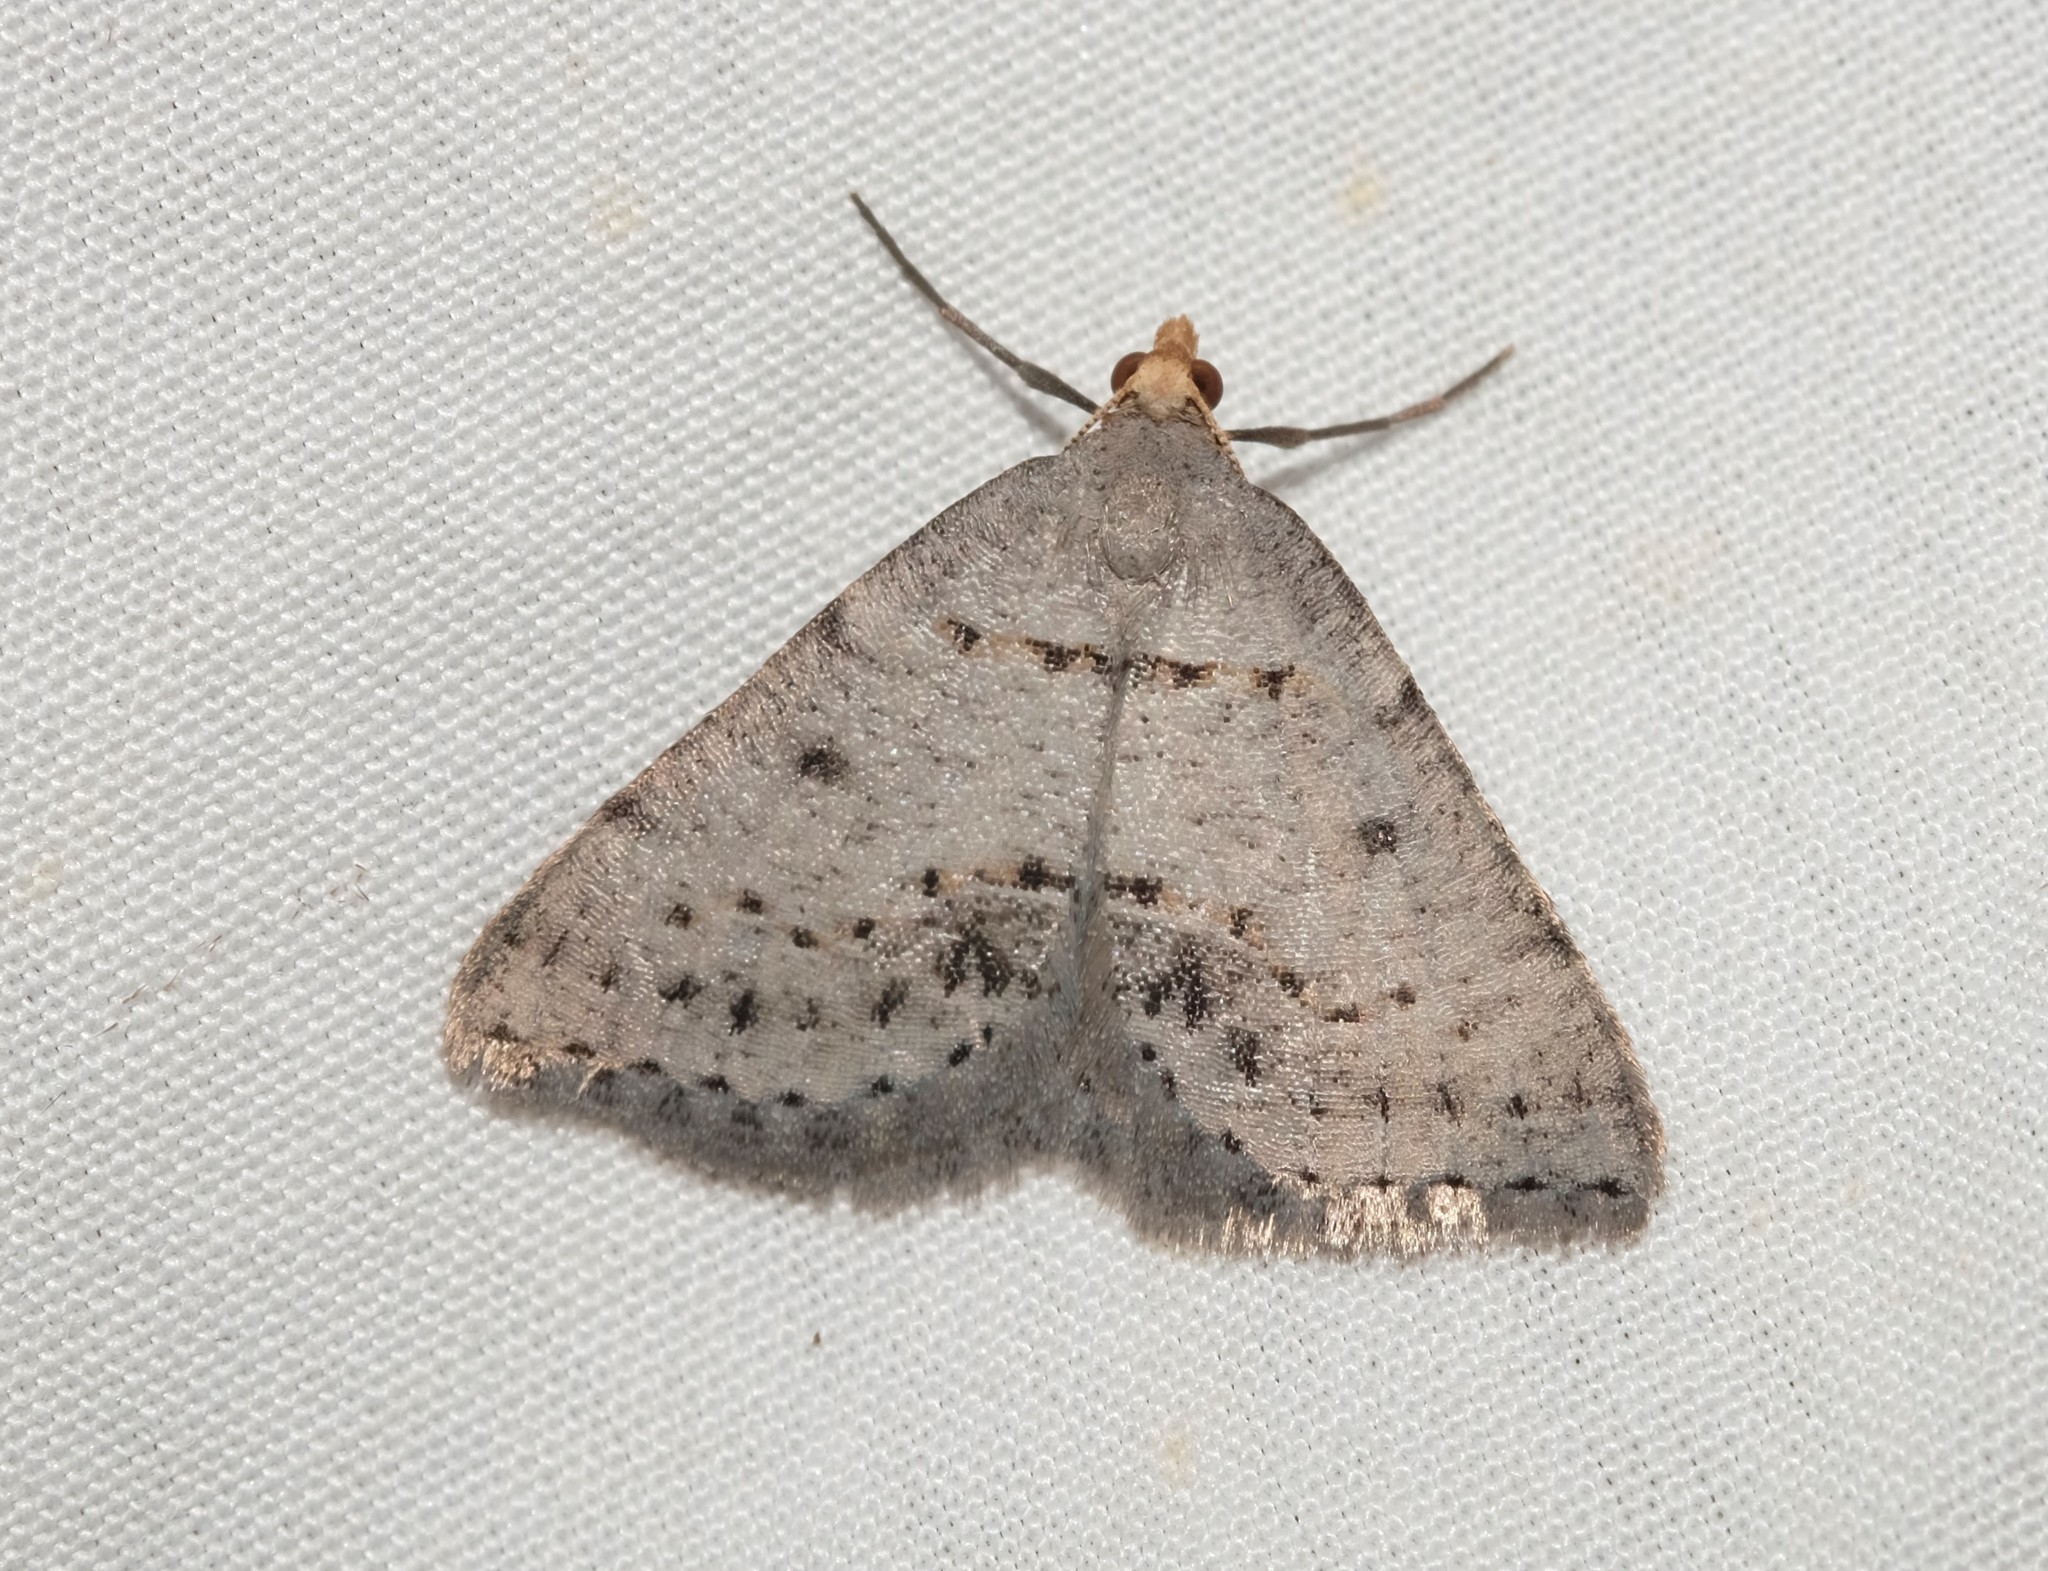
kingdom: Animalia
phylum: Arthropoda
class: Insecta
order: Lepidoptera
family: Geometridae
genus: Taxeotis
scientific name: Taxeotis exsectaria
